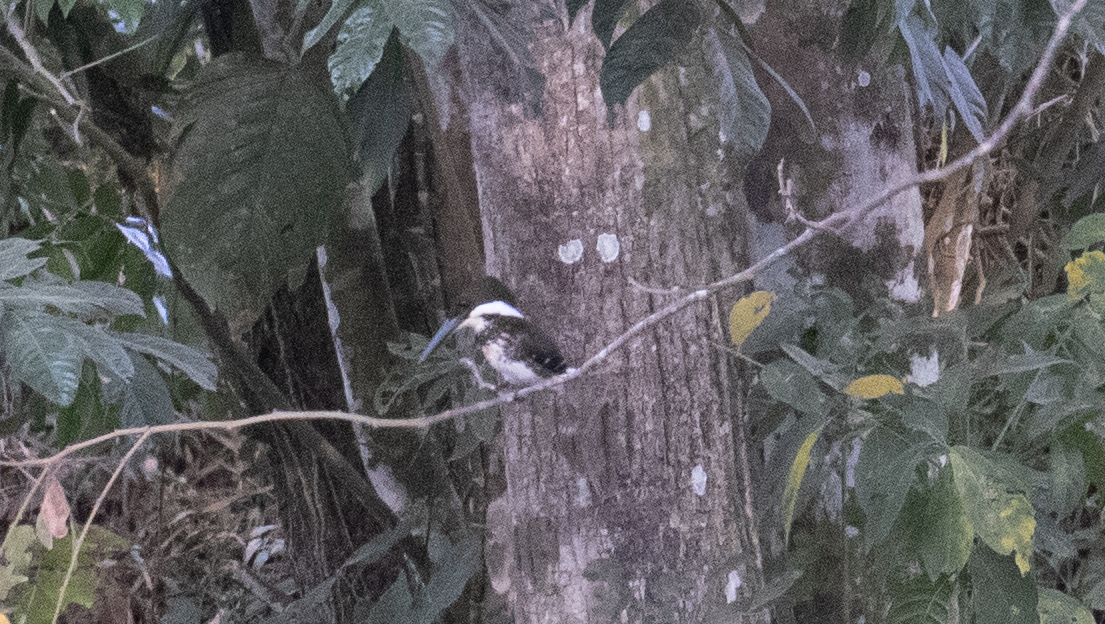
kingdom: Animalia
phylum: Chordata
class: Aves
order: Coraciiformes
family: Alcedinidae
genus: Chloroceryle
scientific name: Chloroceryle americana
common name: Green kingfisher
